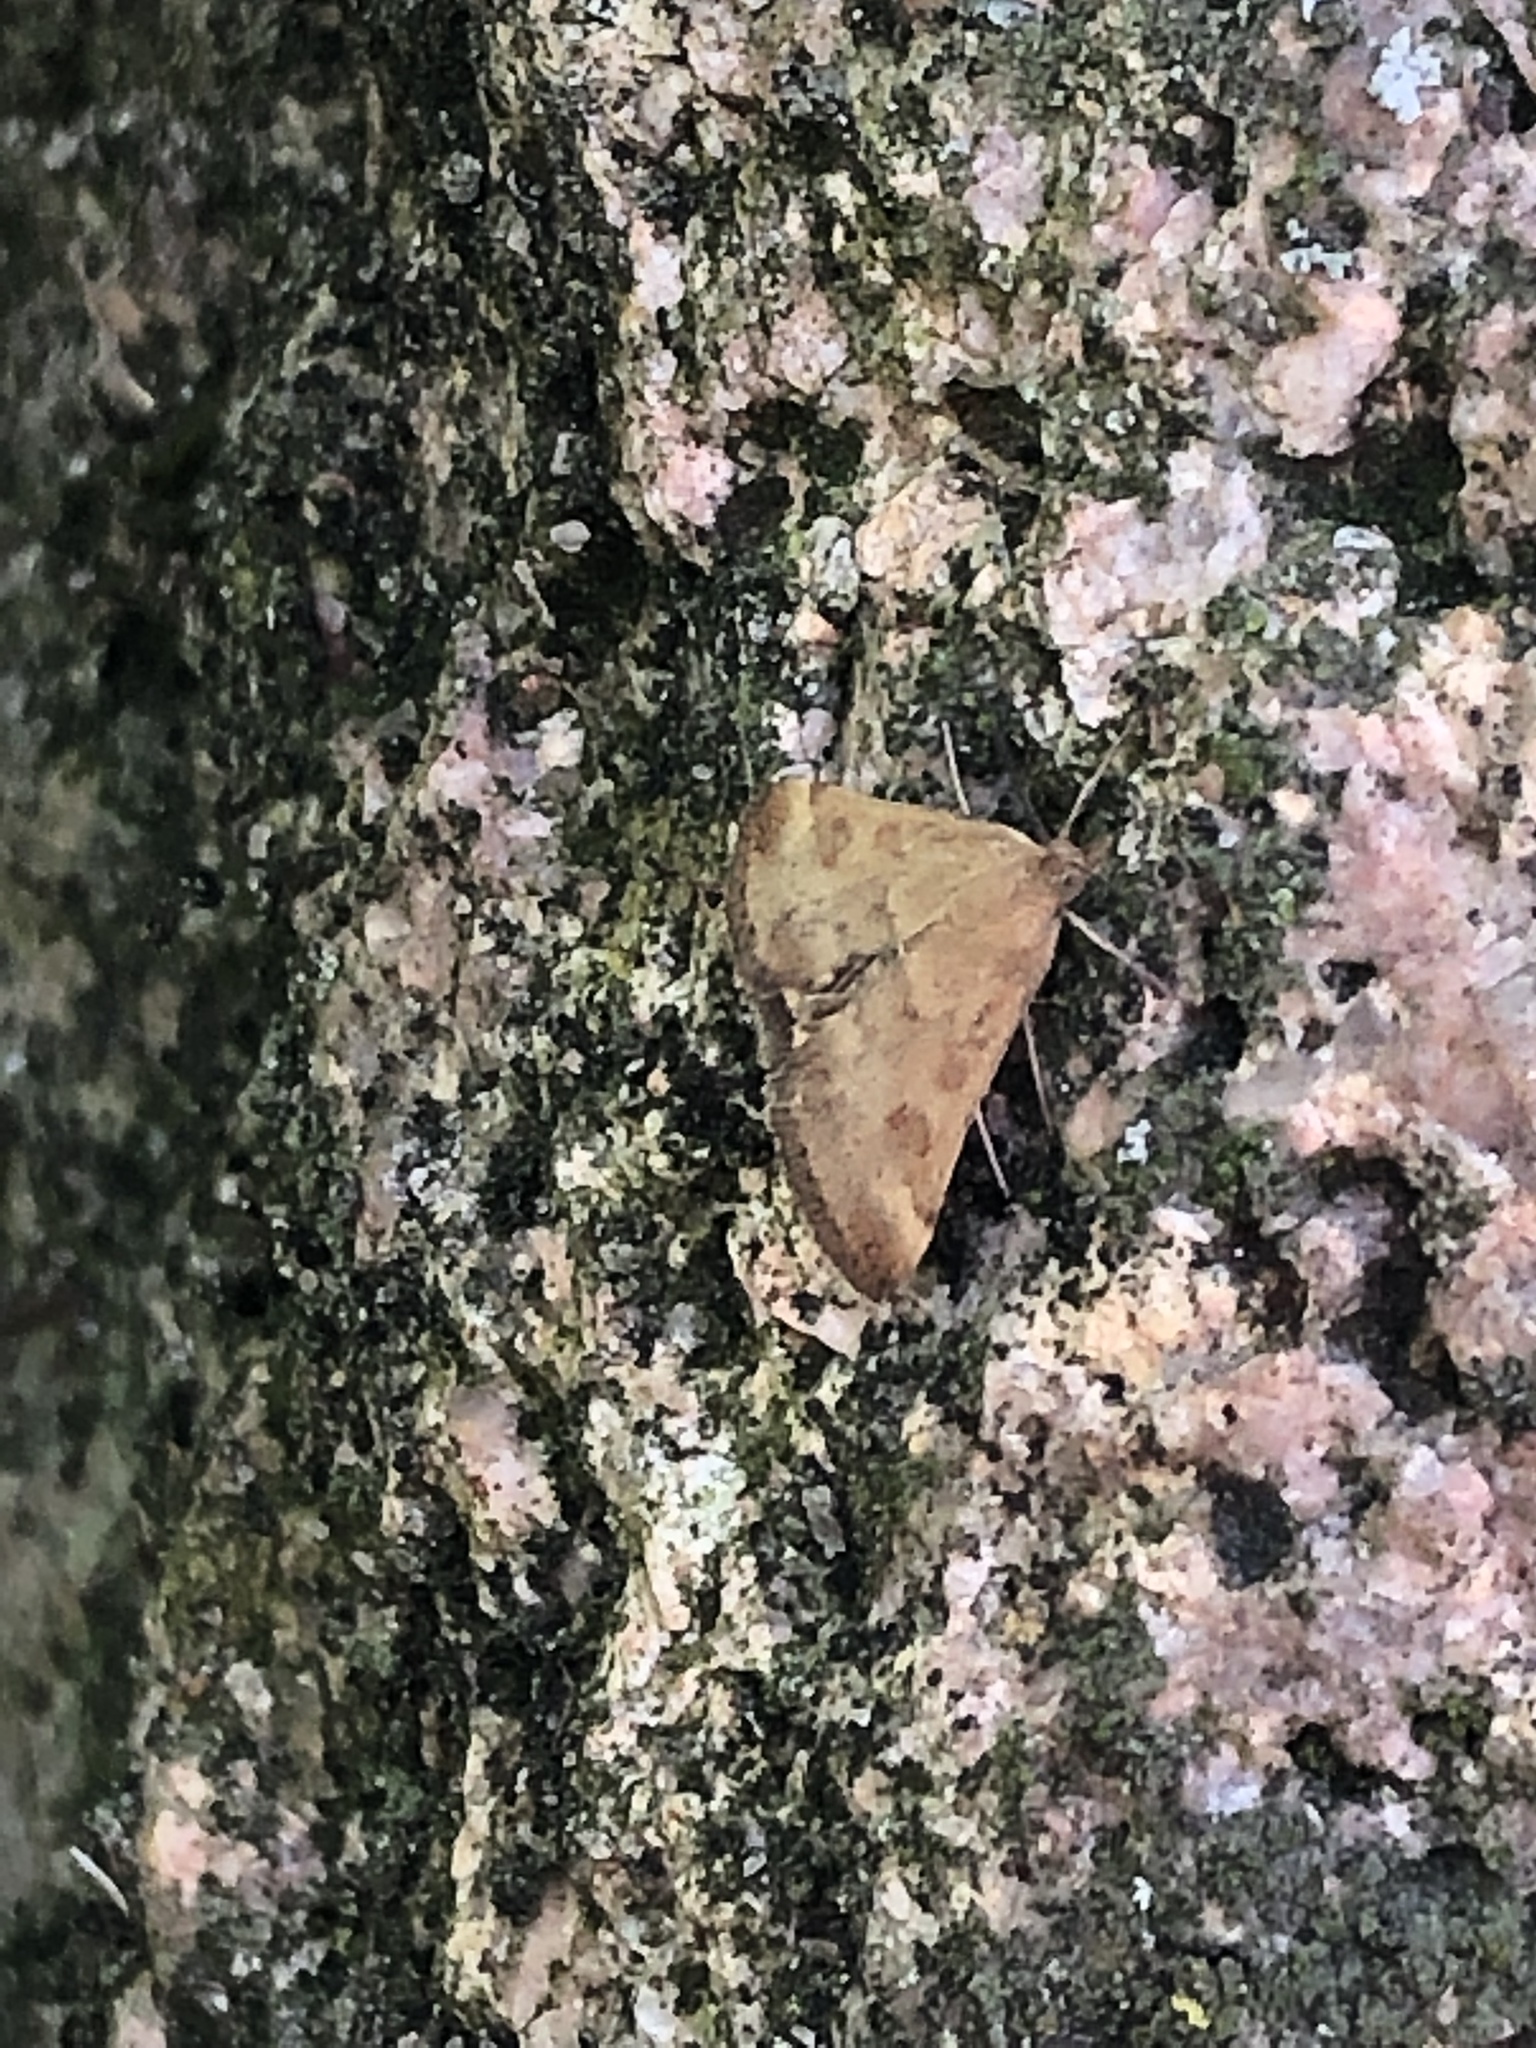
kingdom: Animalia
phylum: Arthropoda
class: Insecta
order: Lepidoptera
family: Crambidae
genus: Pyrausta
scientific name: Pyrausta despicata
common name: Straw-barred pearl
